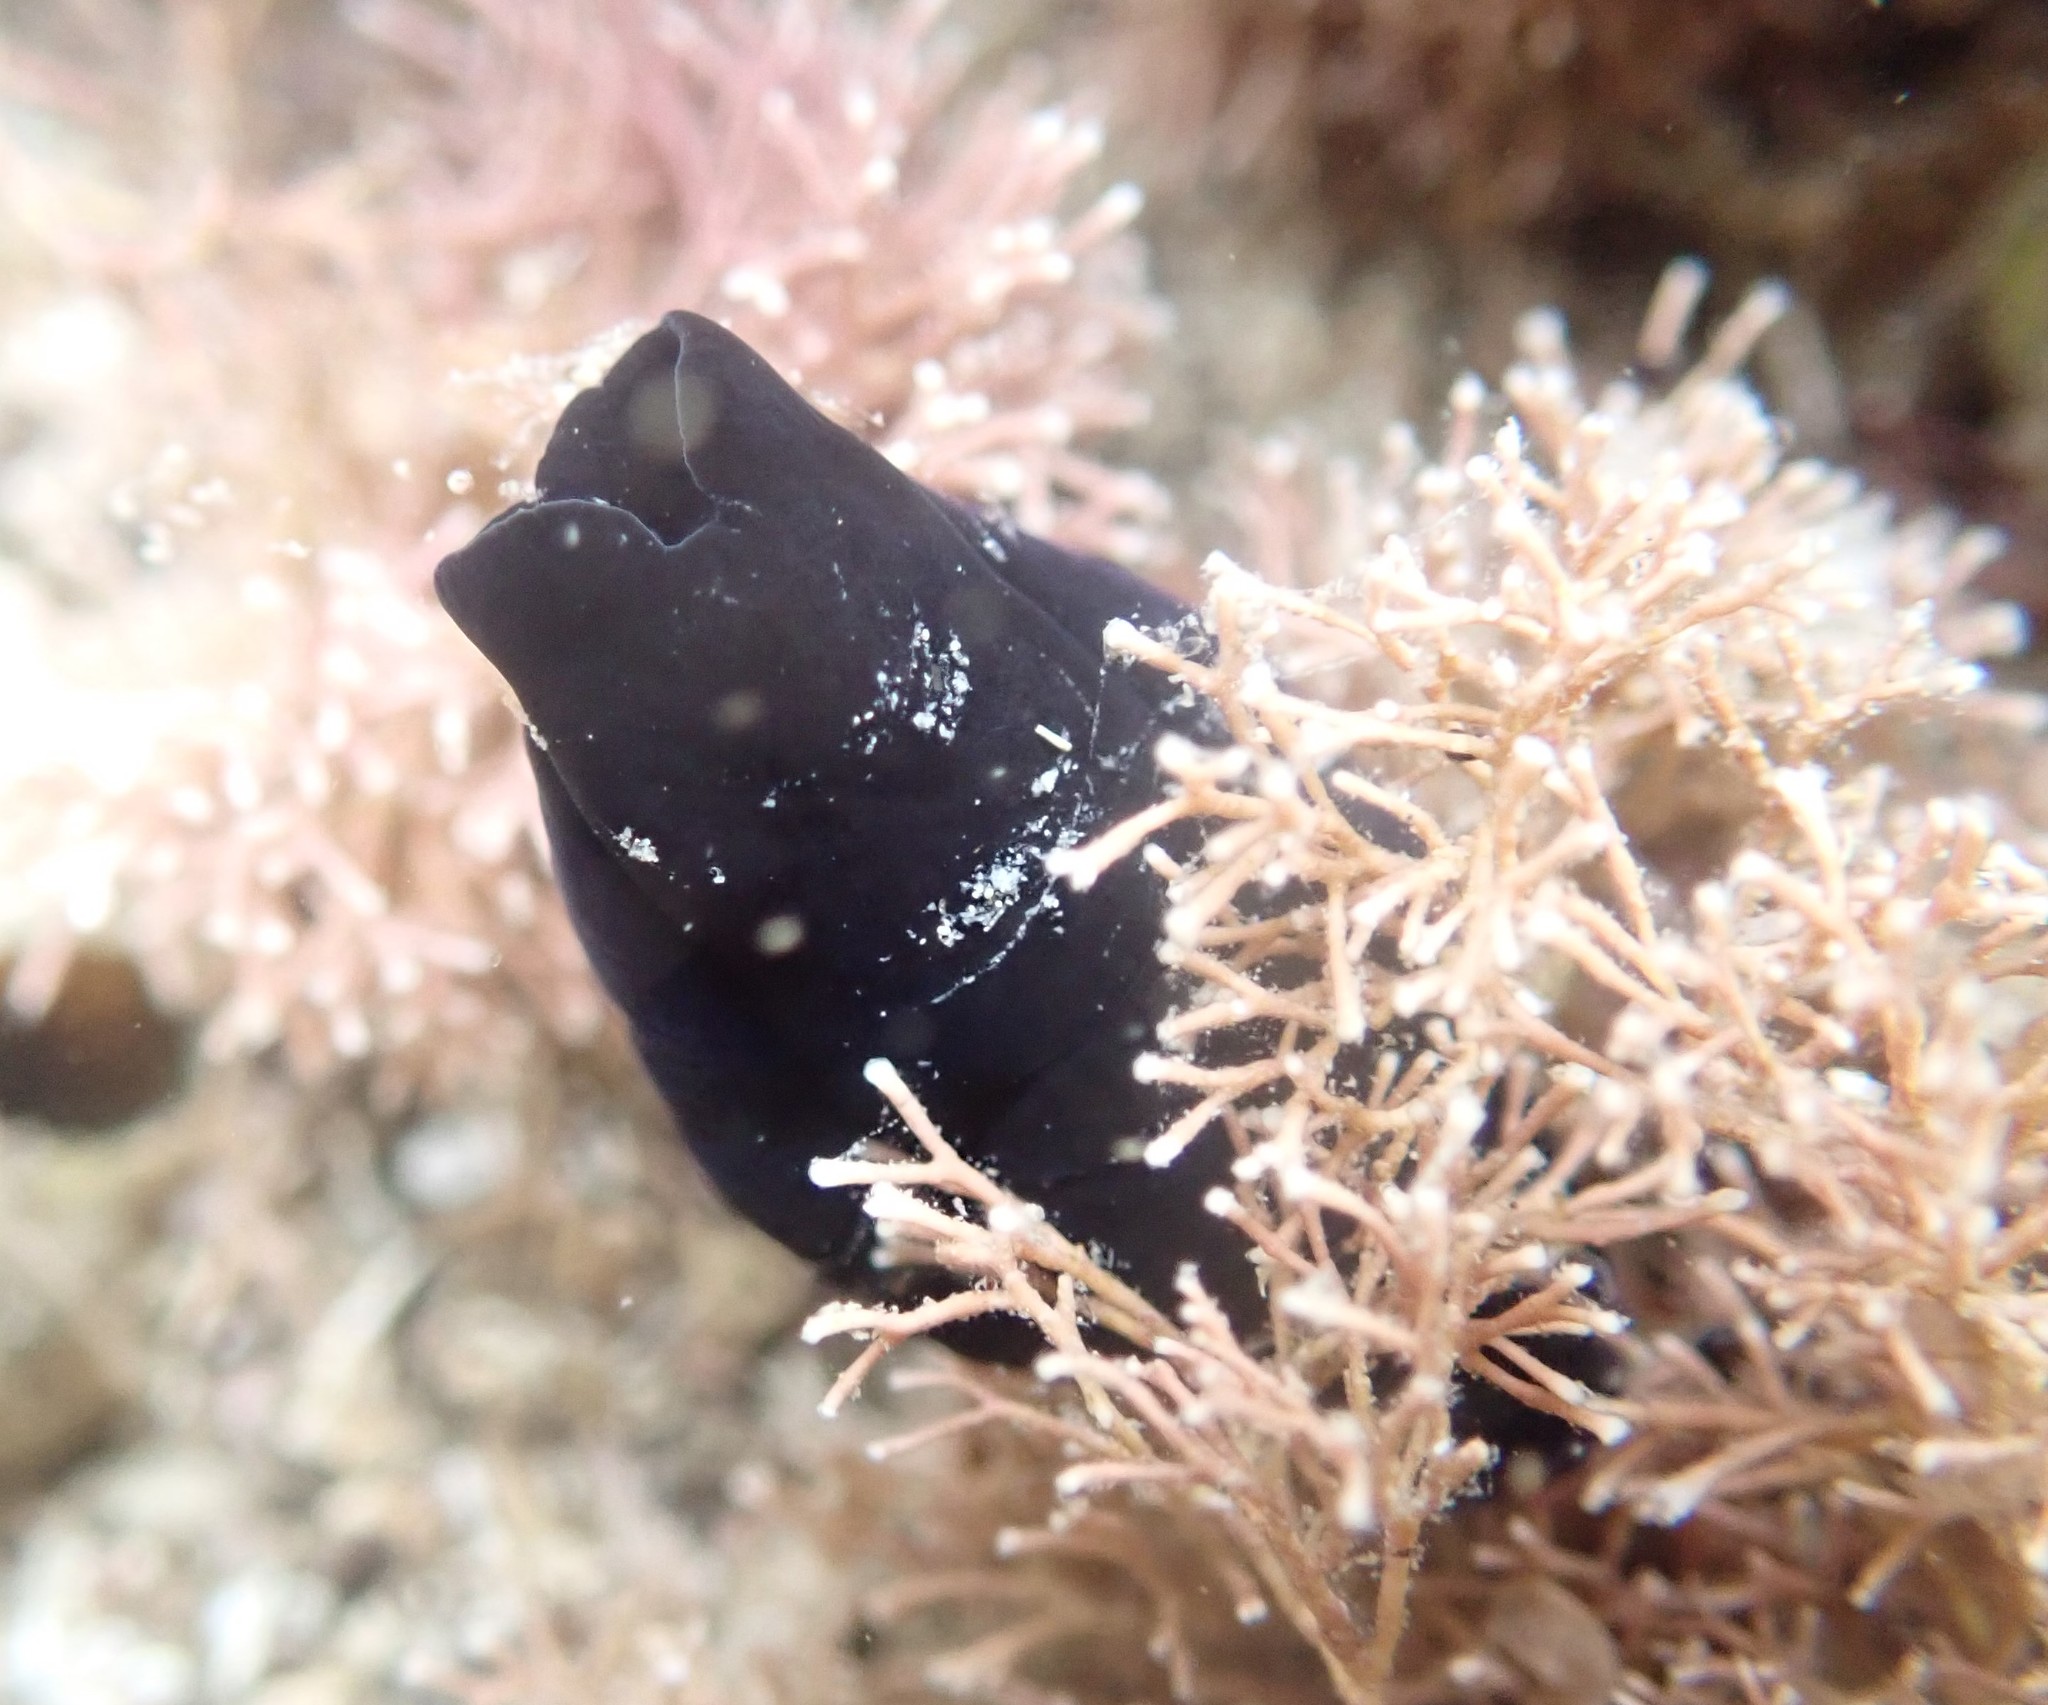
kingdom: Animalia
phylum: Mollusca
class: Gastropoda
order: Cephalaspidea
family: Aglajidae
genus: Melanochlamys
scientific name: Melanochlamys cylindrica
